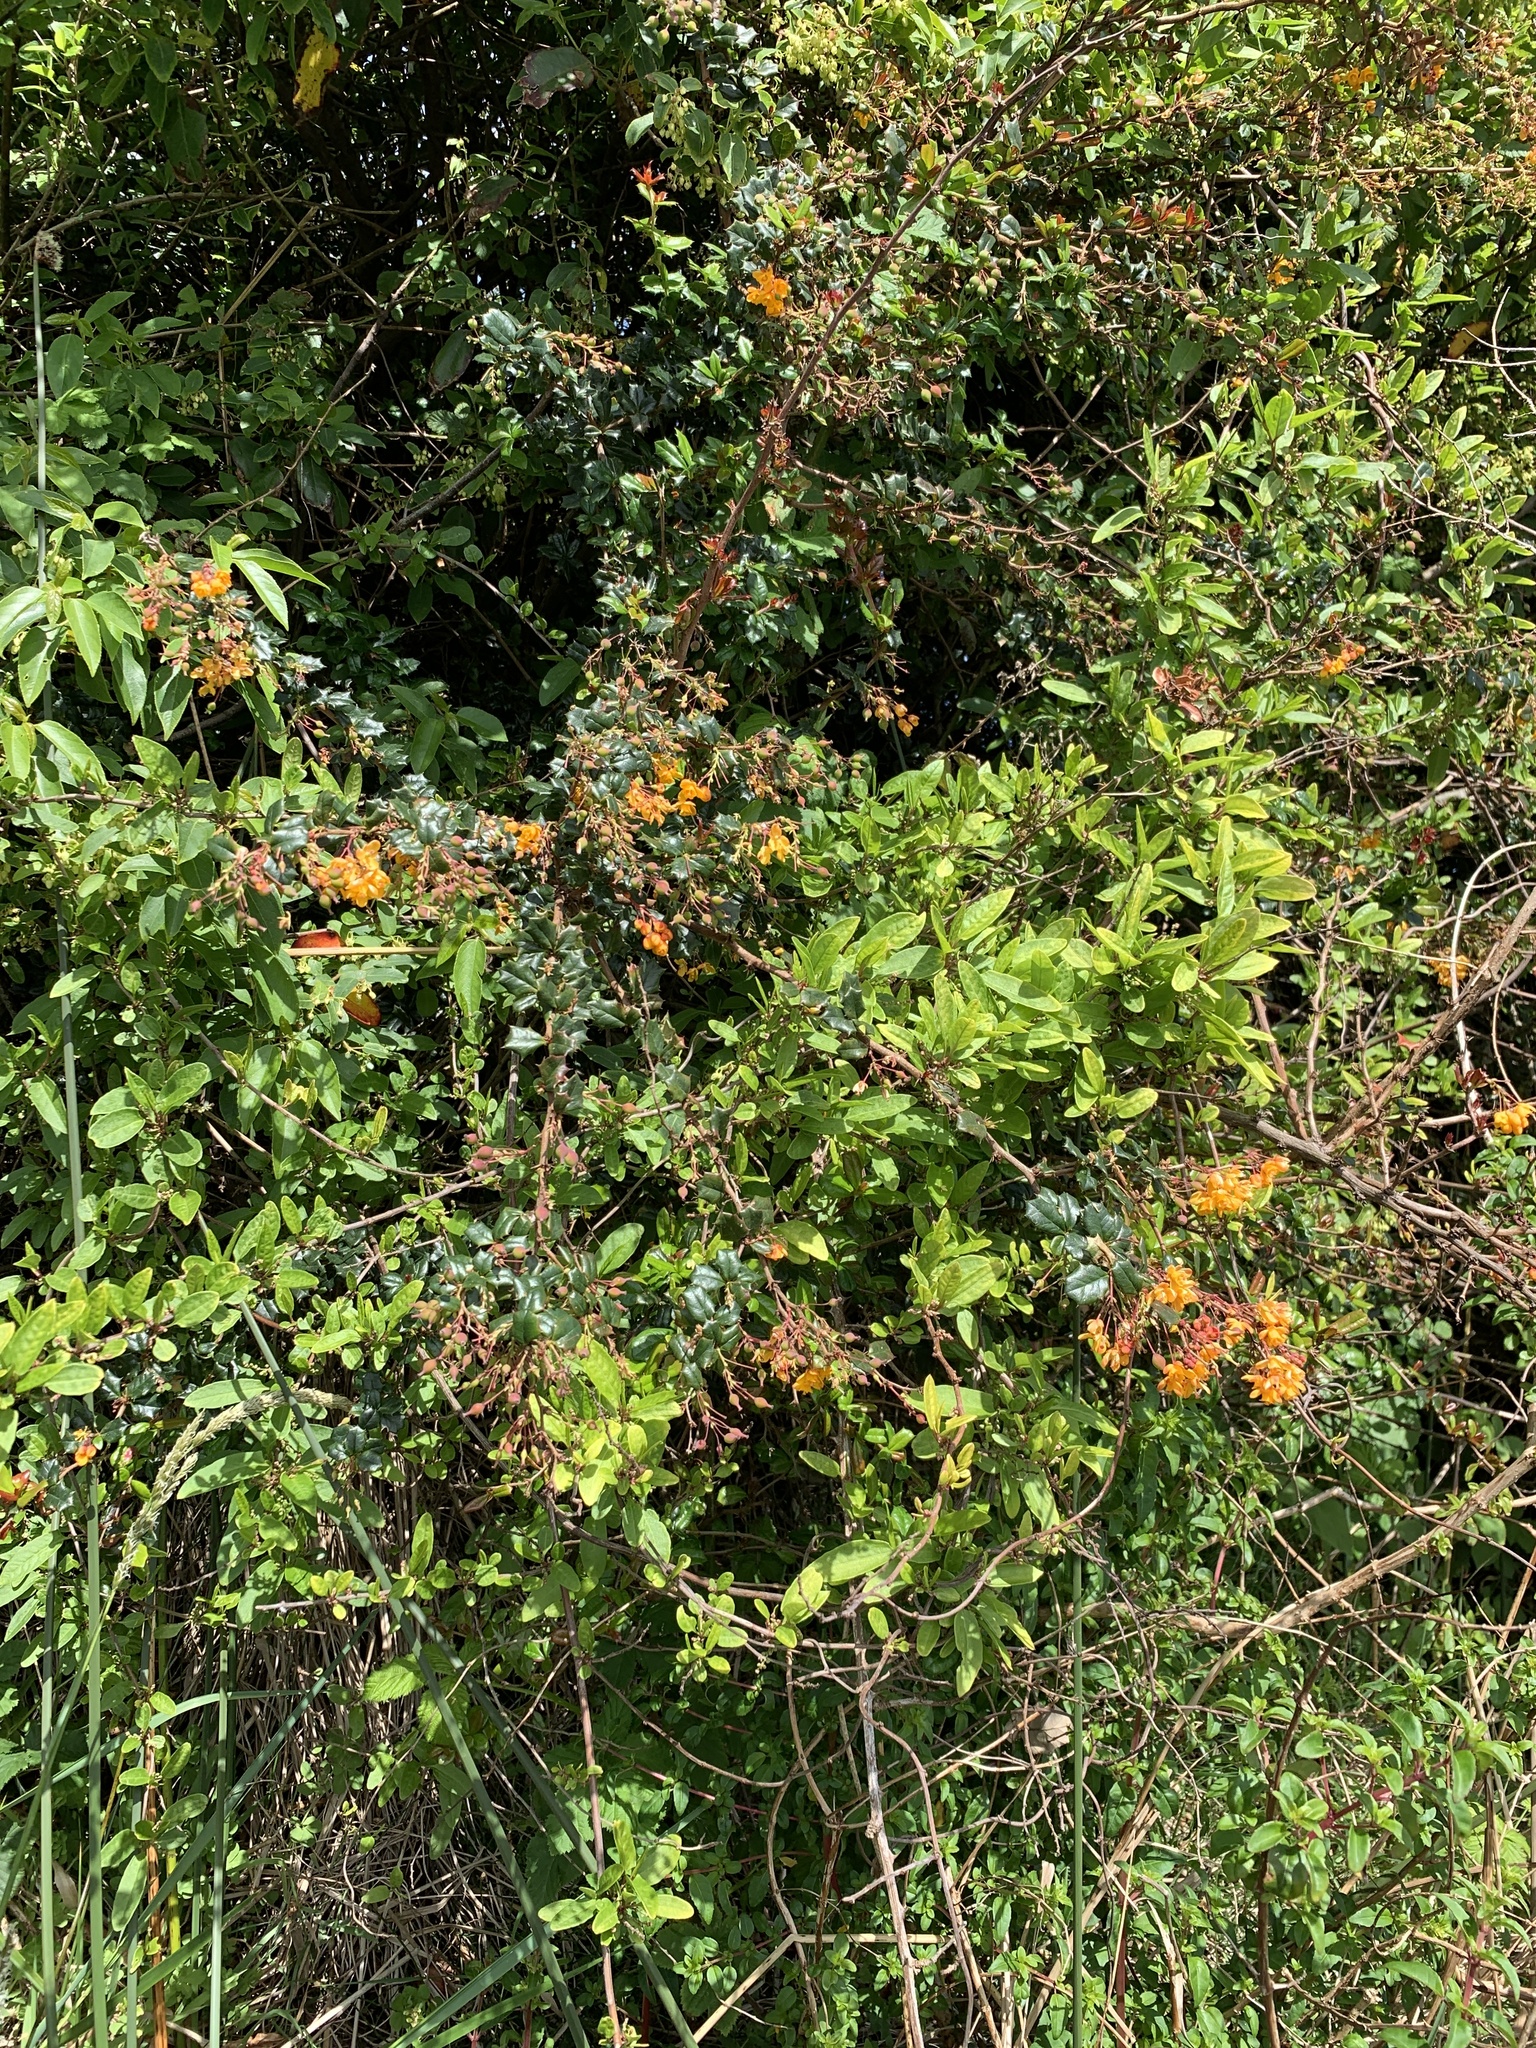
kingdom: Plantae
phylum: Tracheophyta
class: Magnoliopsida
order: Ranunculales
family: Berberidaceae
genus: Berberis
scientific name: Berberis darwinii
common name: Darwin's barberry
